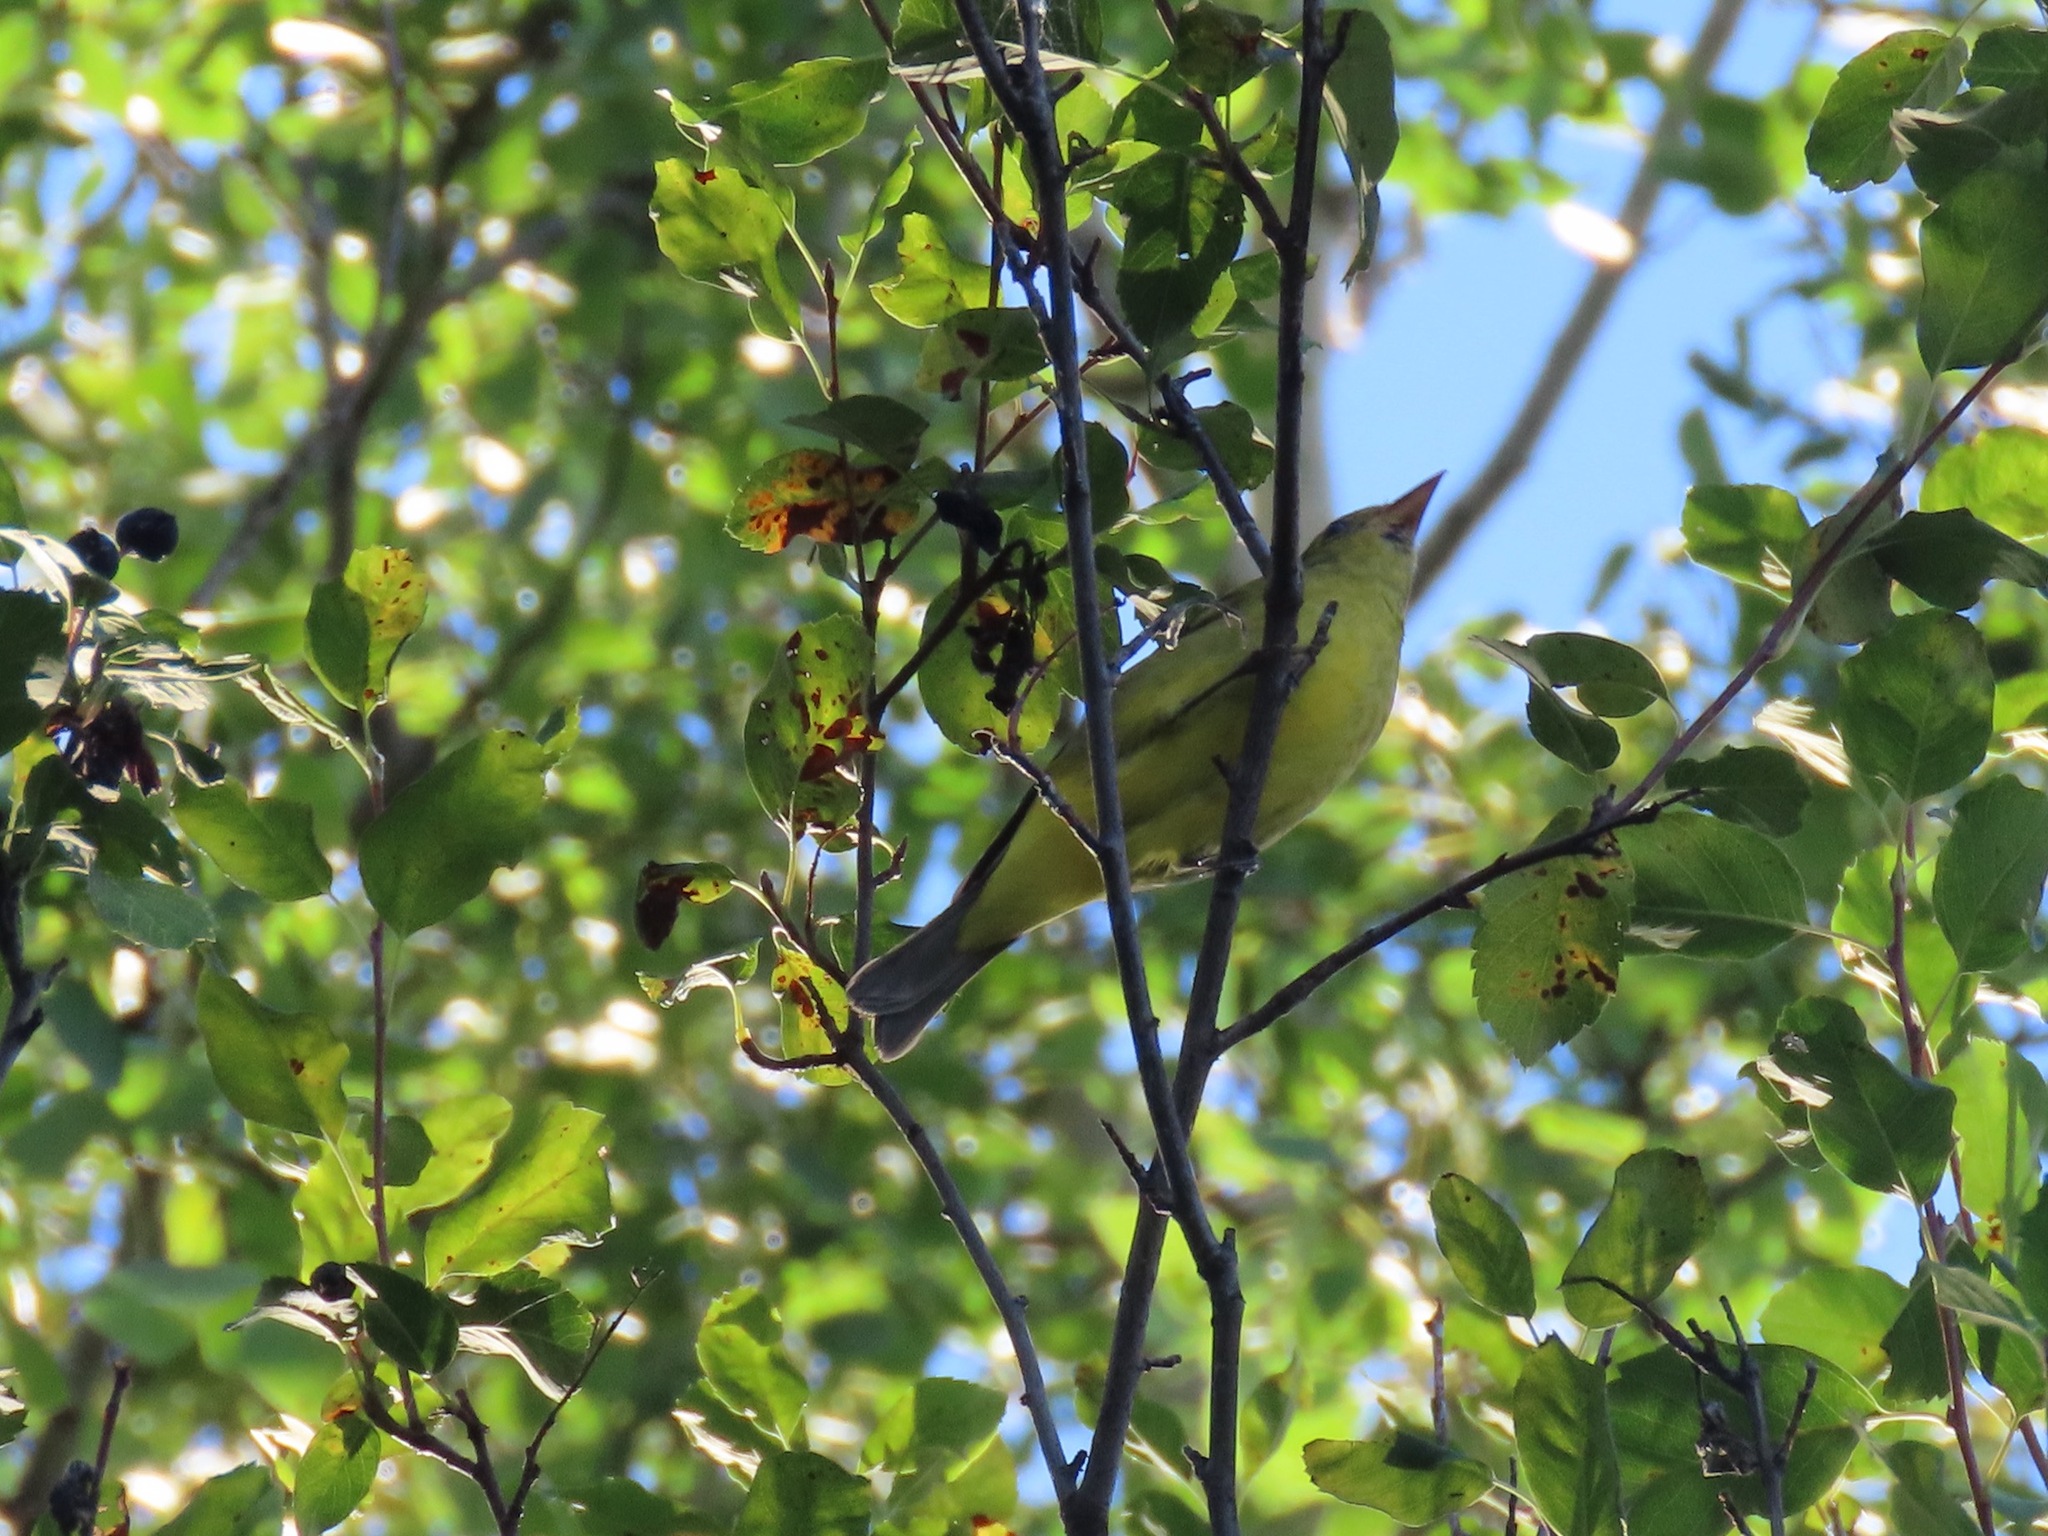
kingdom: Animalia
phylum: Chordata
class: Aves
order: Passeriformes
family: Cardinalidae
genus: Piranga
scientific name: Piranga ludoviciana
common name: Western tanager
